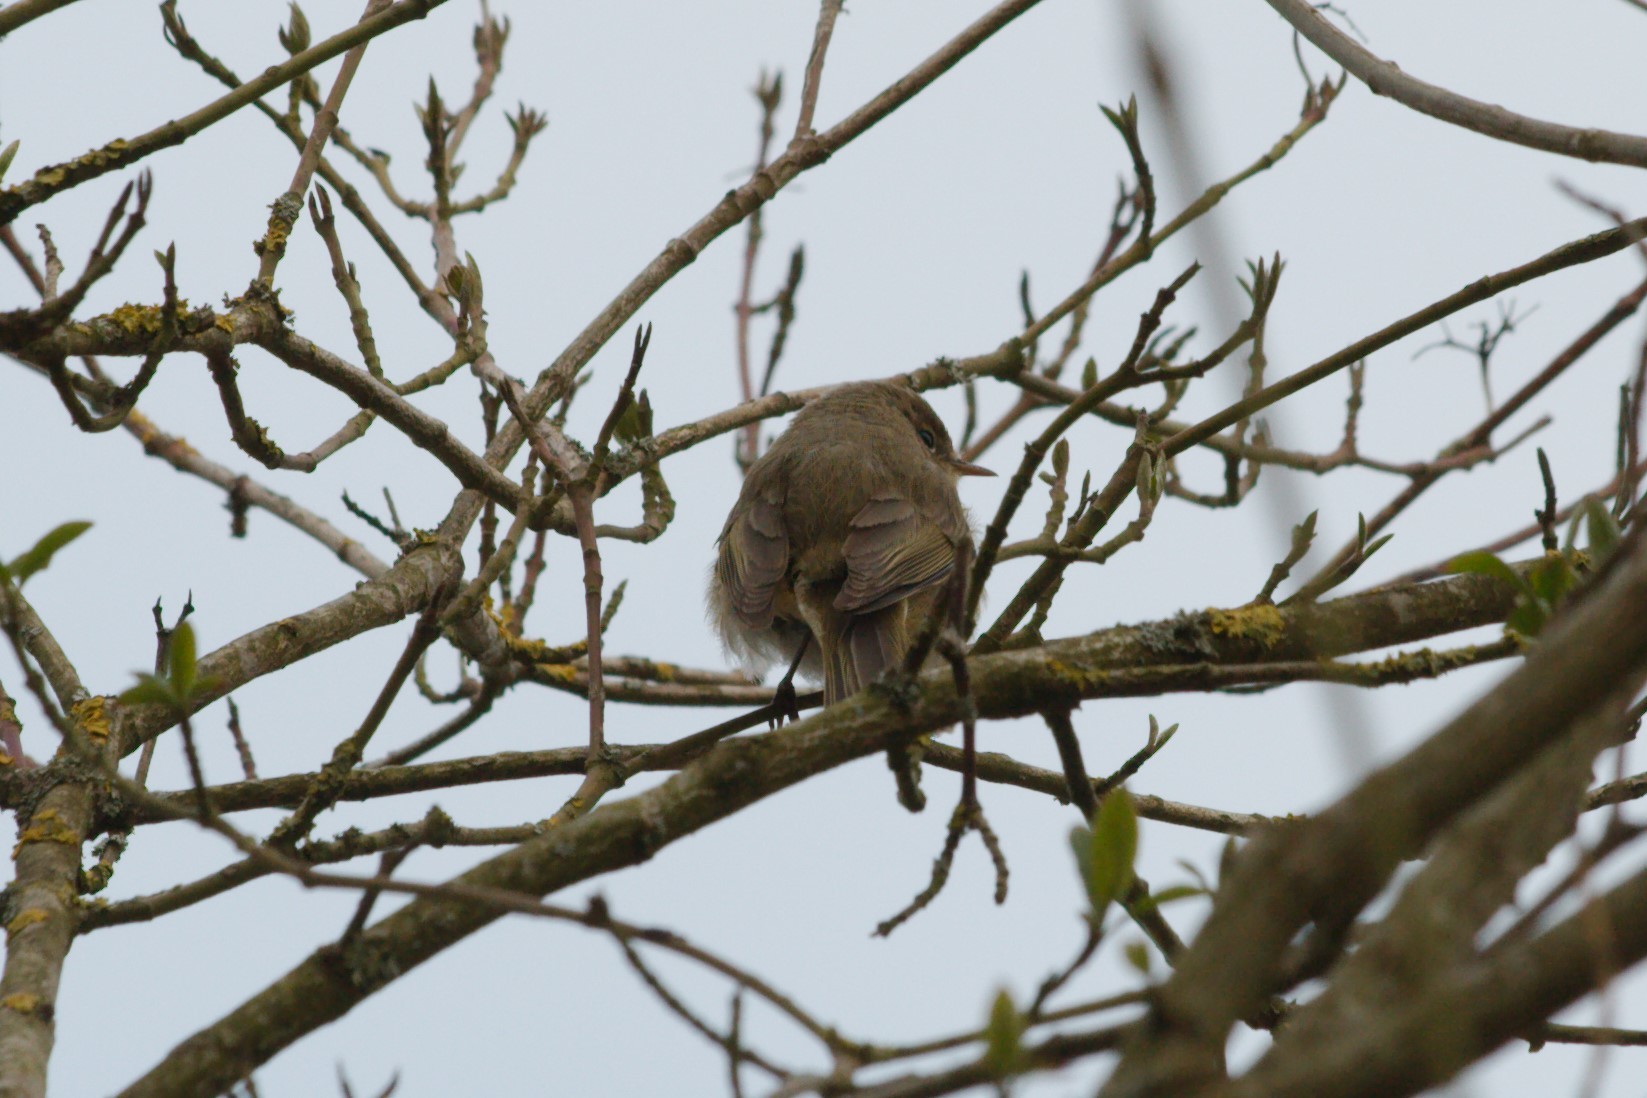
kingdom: Animalia
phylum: Chordata
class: Aves
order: Passeriformes
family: Phylloscopidae
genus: Phylloscopus
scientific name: Phylloscopus collybita
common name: Common chiffchaff
